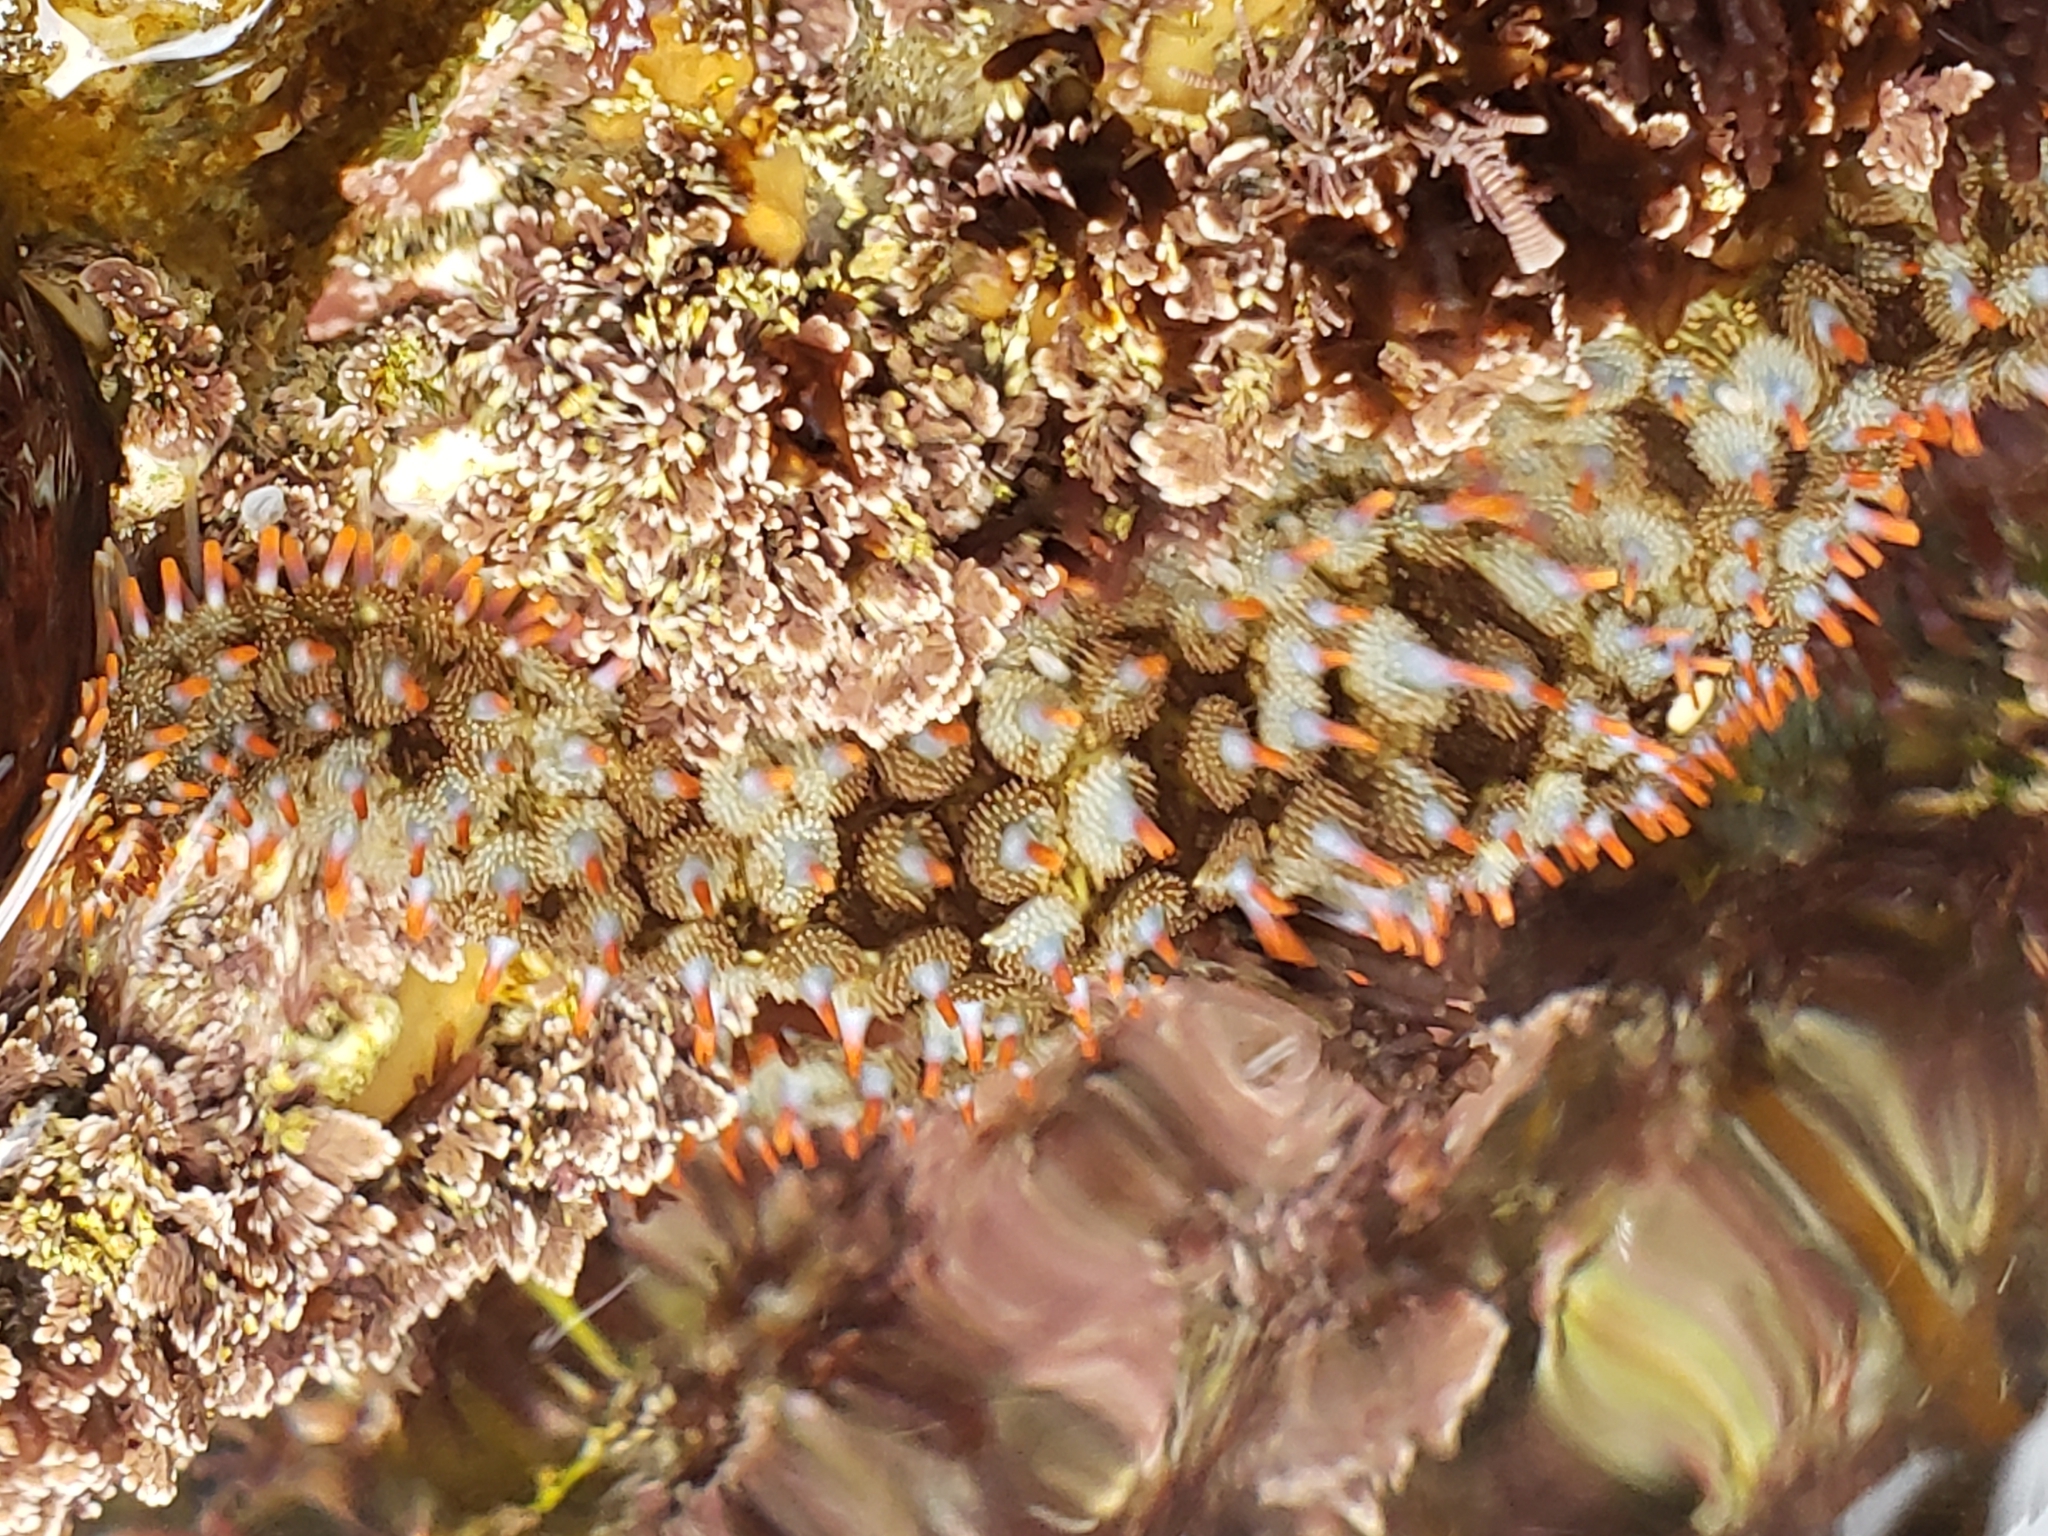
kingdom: Animalia
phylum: Echinodermata
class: Asteroidea
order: Forcipulatida
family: Asteriidae
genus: Astrometis
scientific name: Astrometis sertulifera
